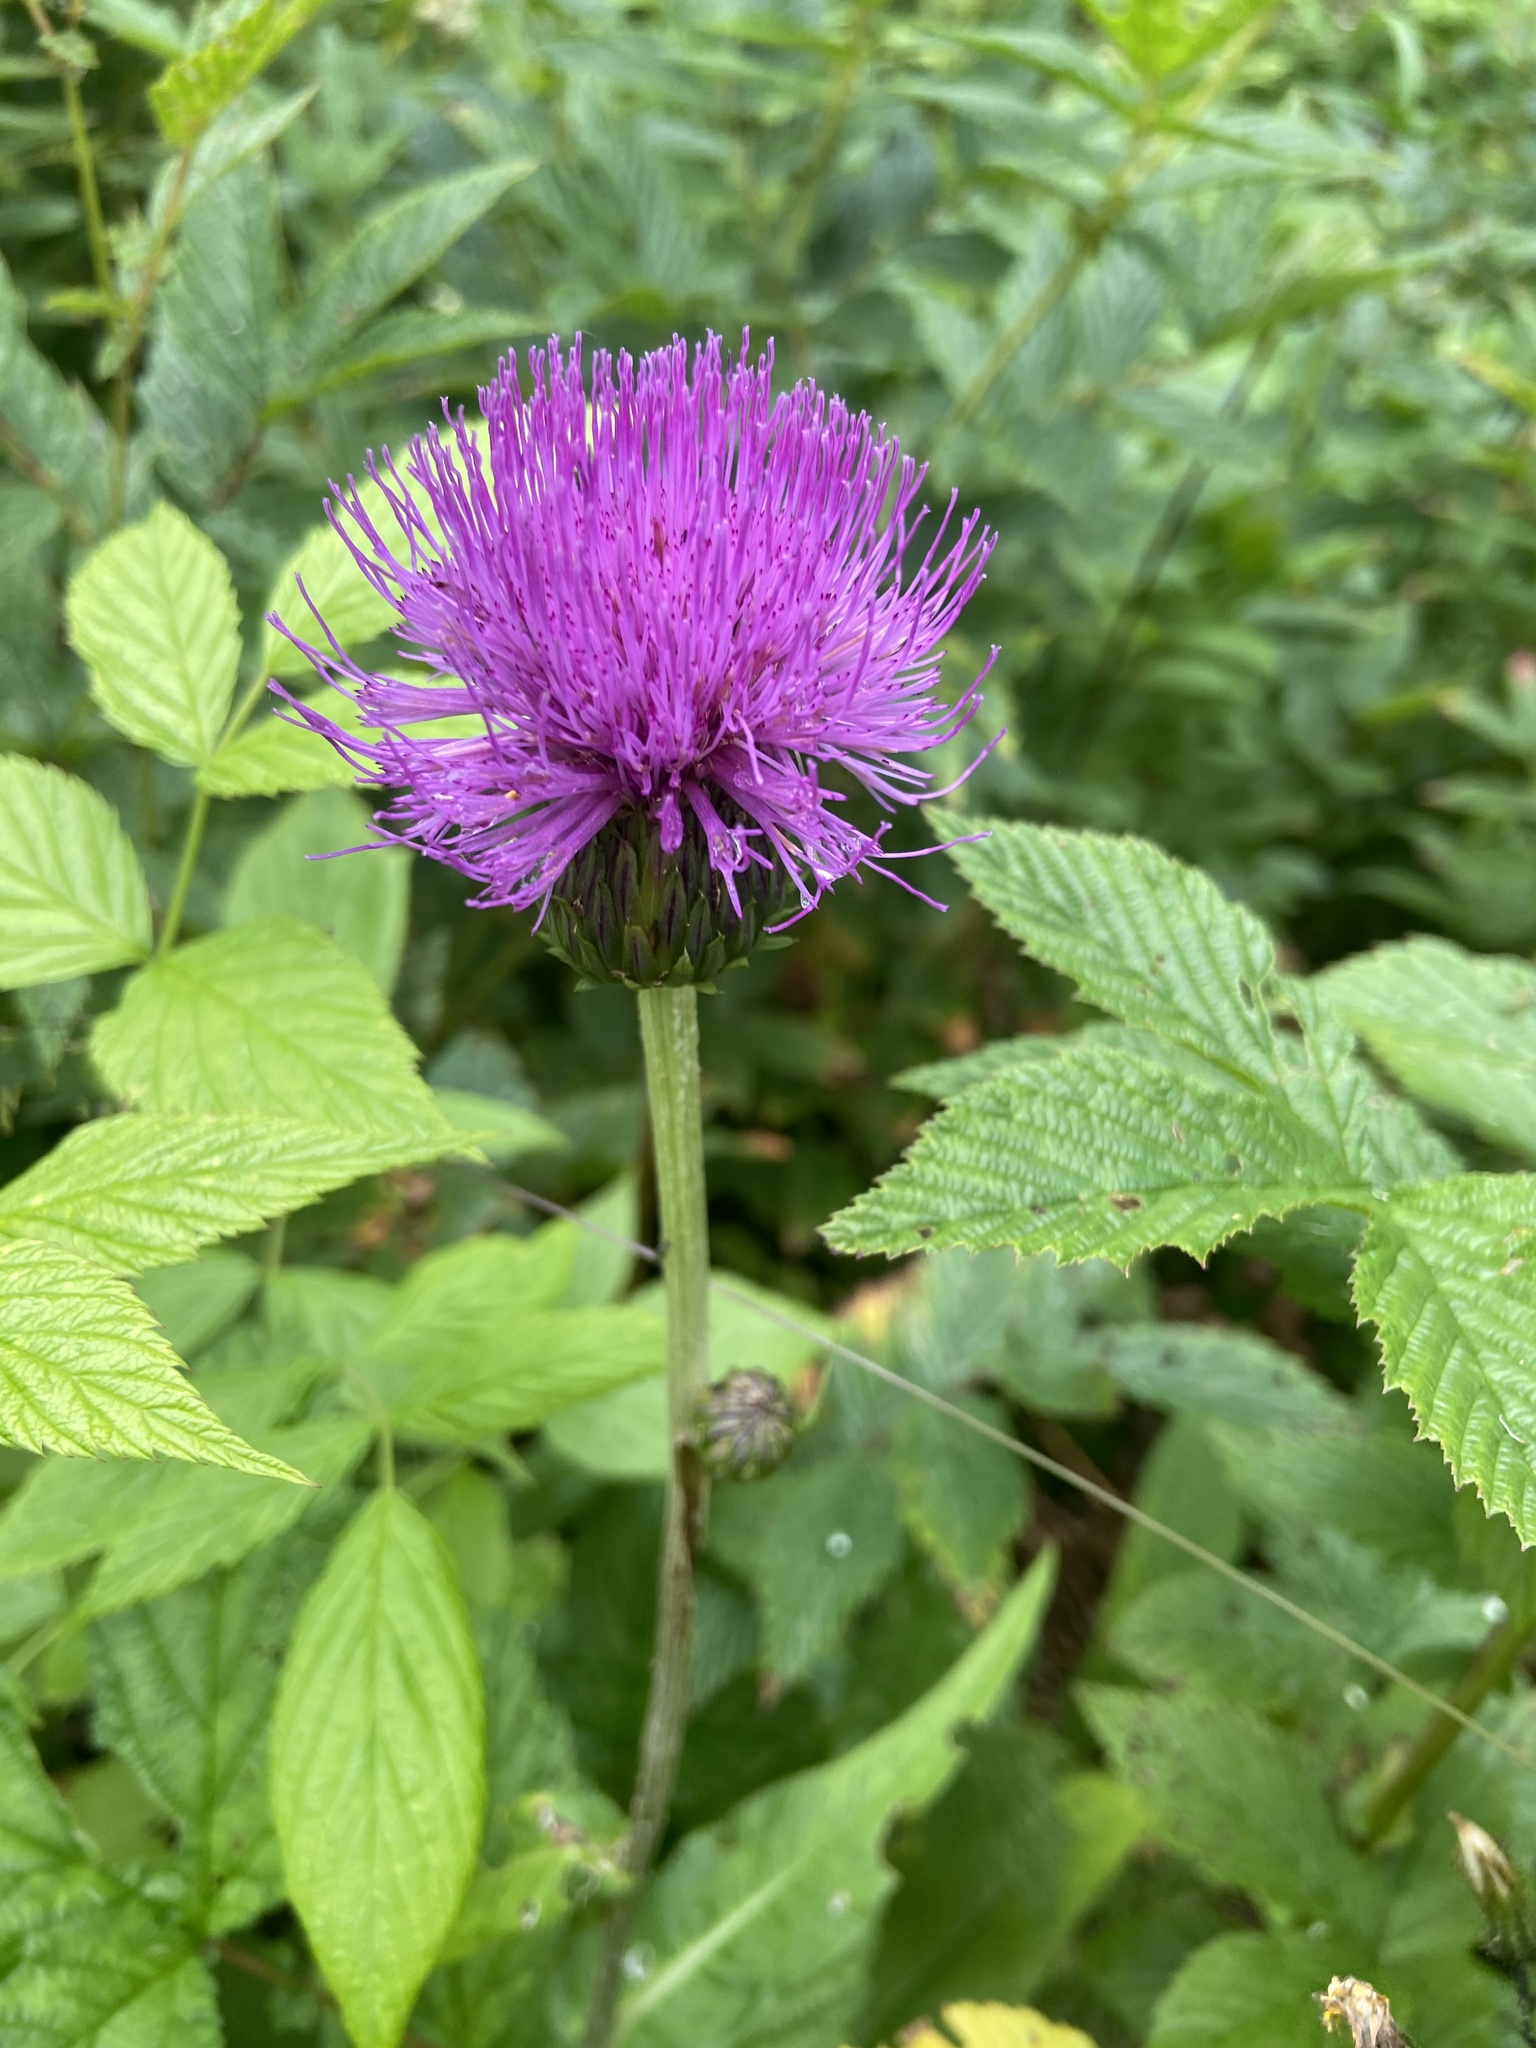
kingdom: Plantae
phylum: Tracheophyta
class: Magnoliopsida
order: Asterales
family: Asteraceae
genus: Cirsium
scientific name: Cirsium heterophyllum
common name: Melancholy thistle
